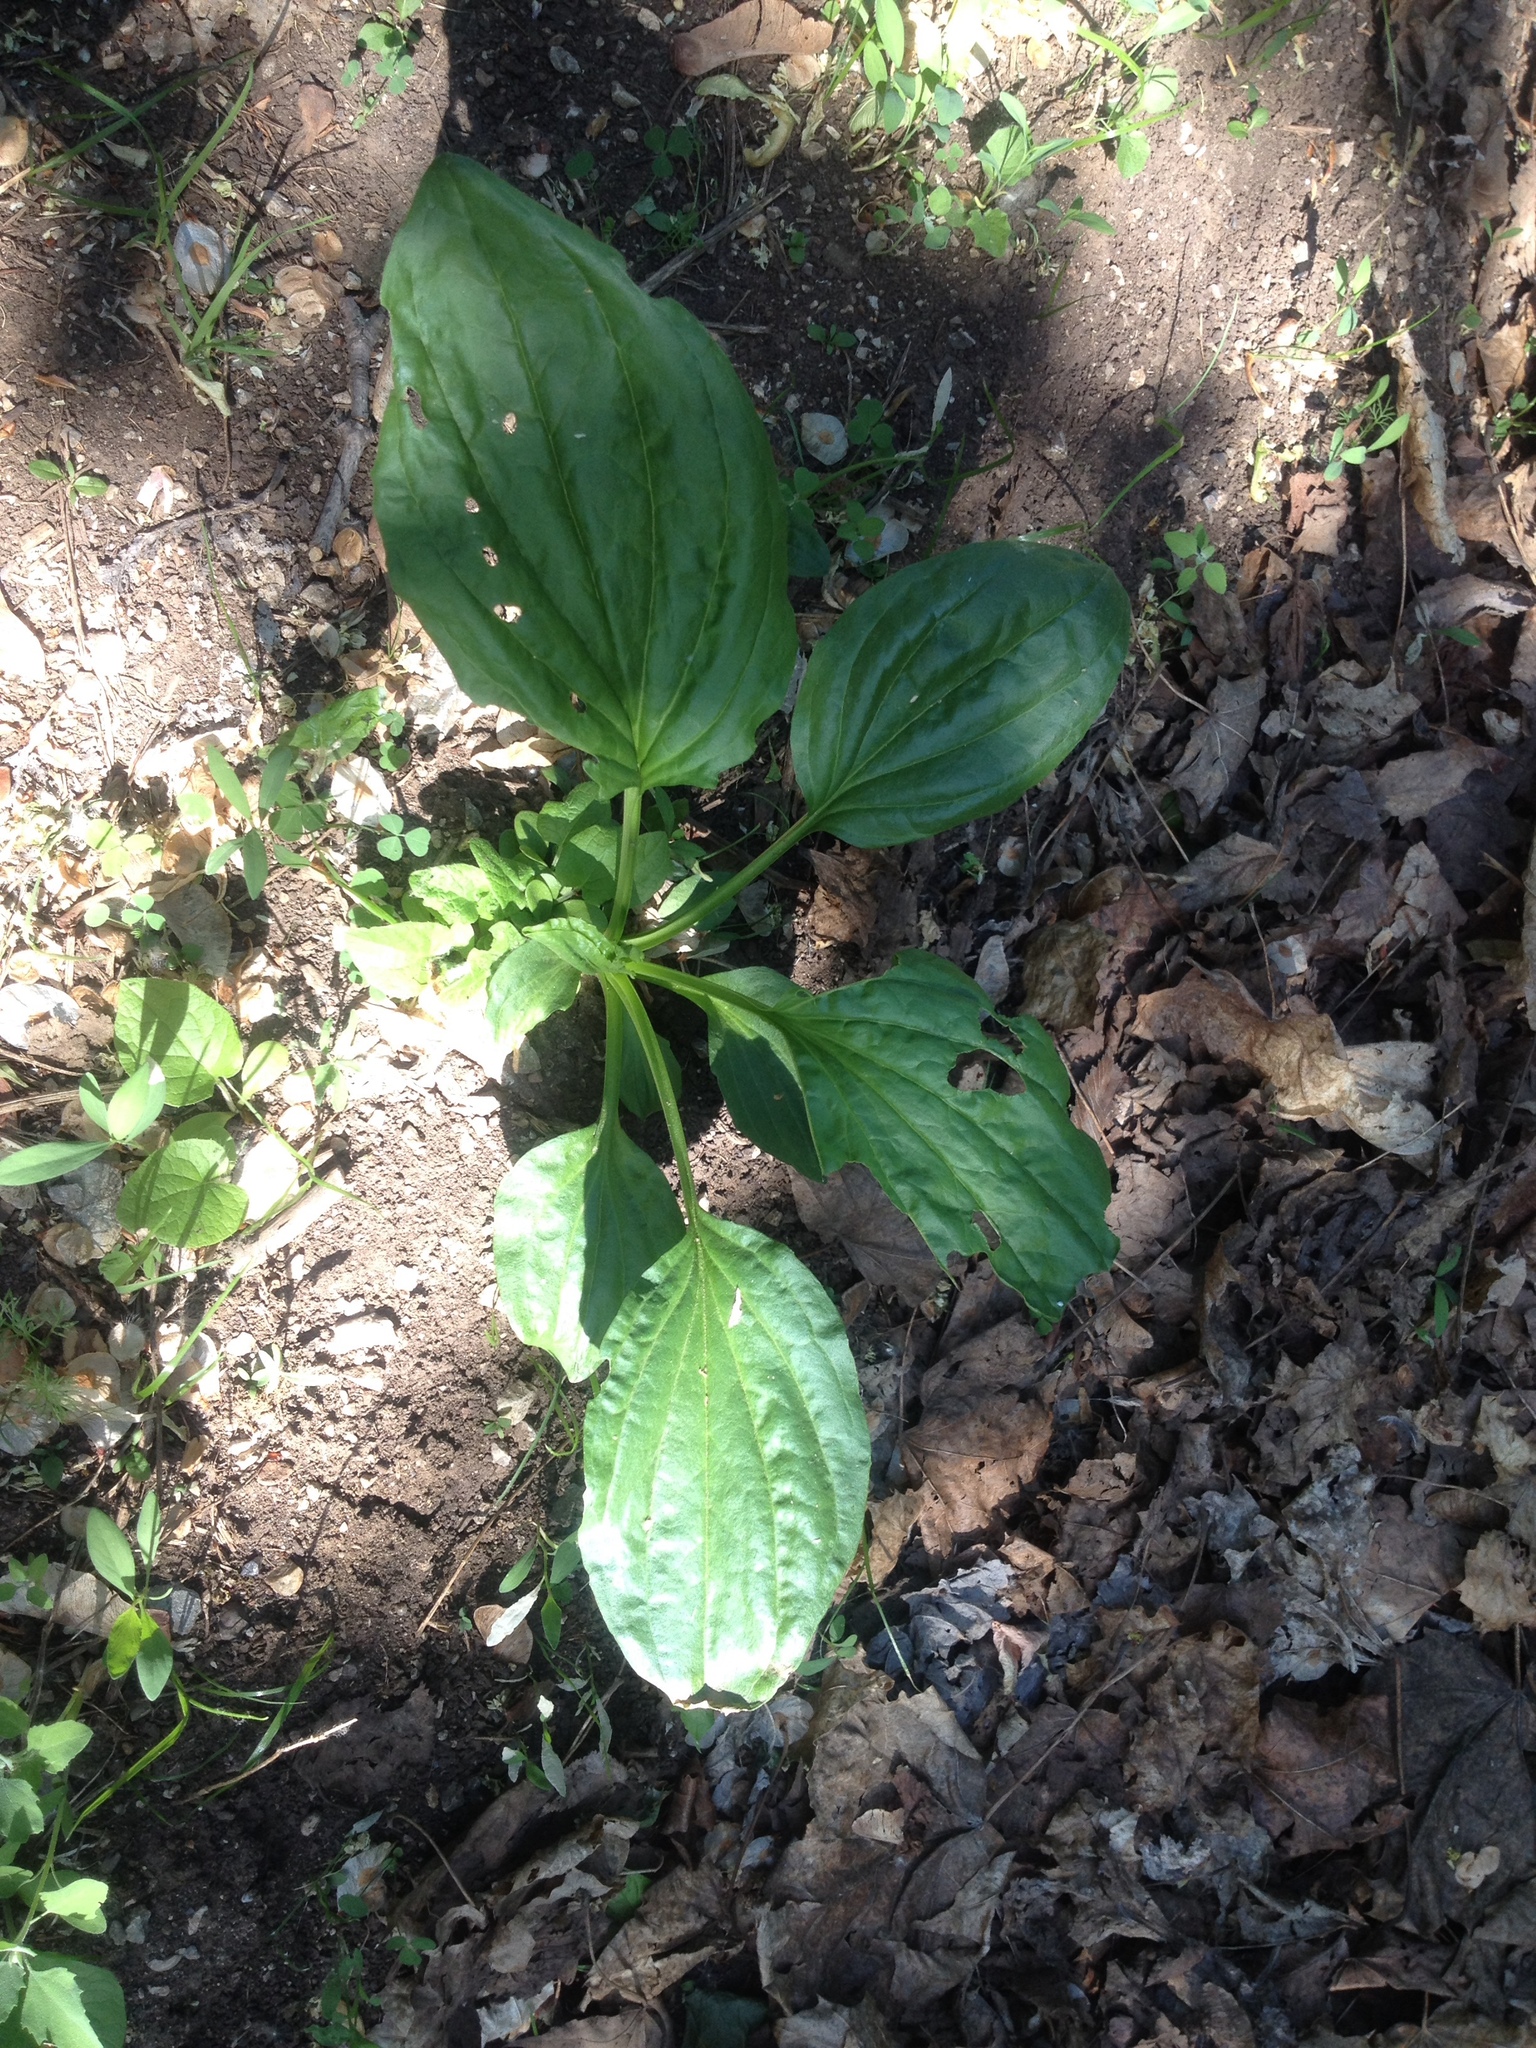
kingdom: Plantae
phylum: Tracheophyta
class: Magnoliopsida
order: Lamiales
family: Plantaginaceae
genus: Plantago
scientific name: Plantago major
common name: Common plantain
